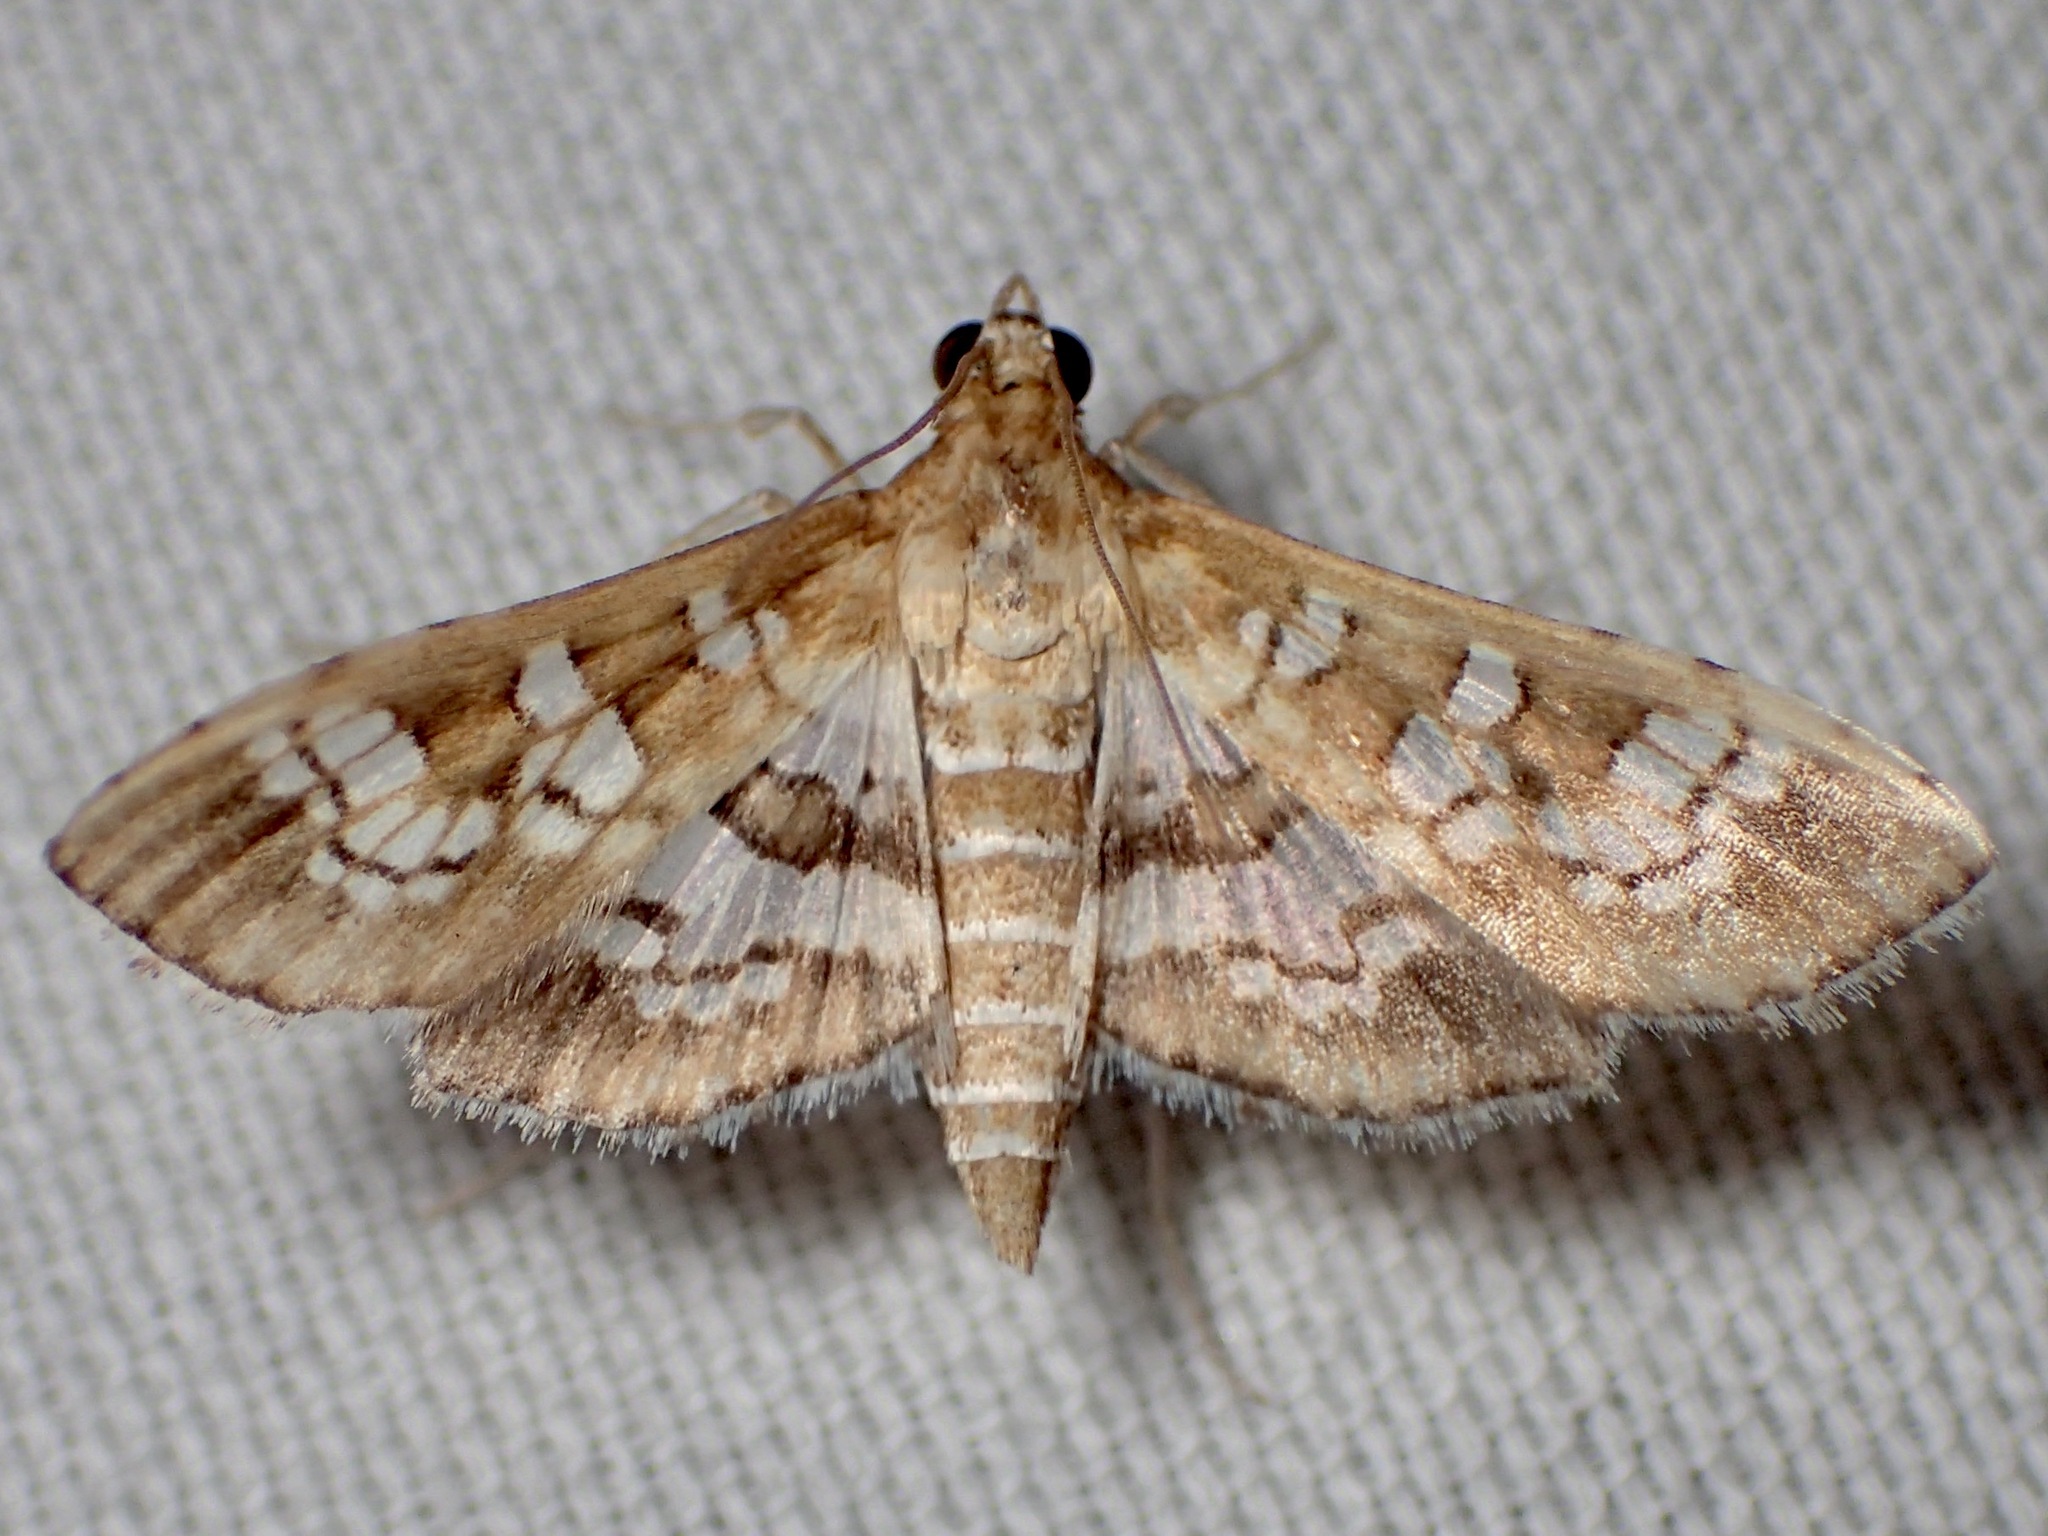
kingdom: Animalia
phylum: Arthropoda
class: Insecta
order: Lepidoptera
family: Crambidae
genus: Sameodes
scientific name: Sameodes cancellalis
